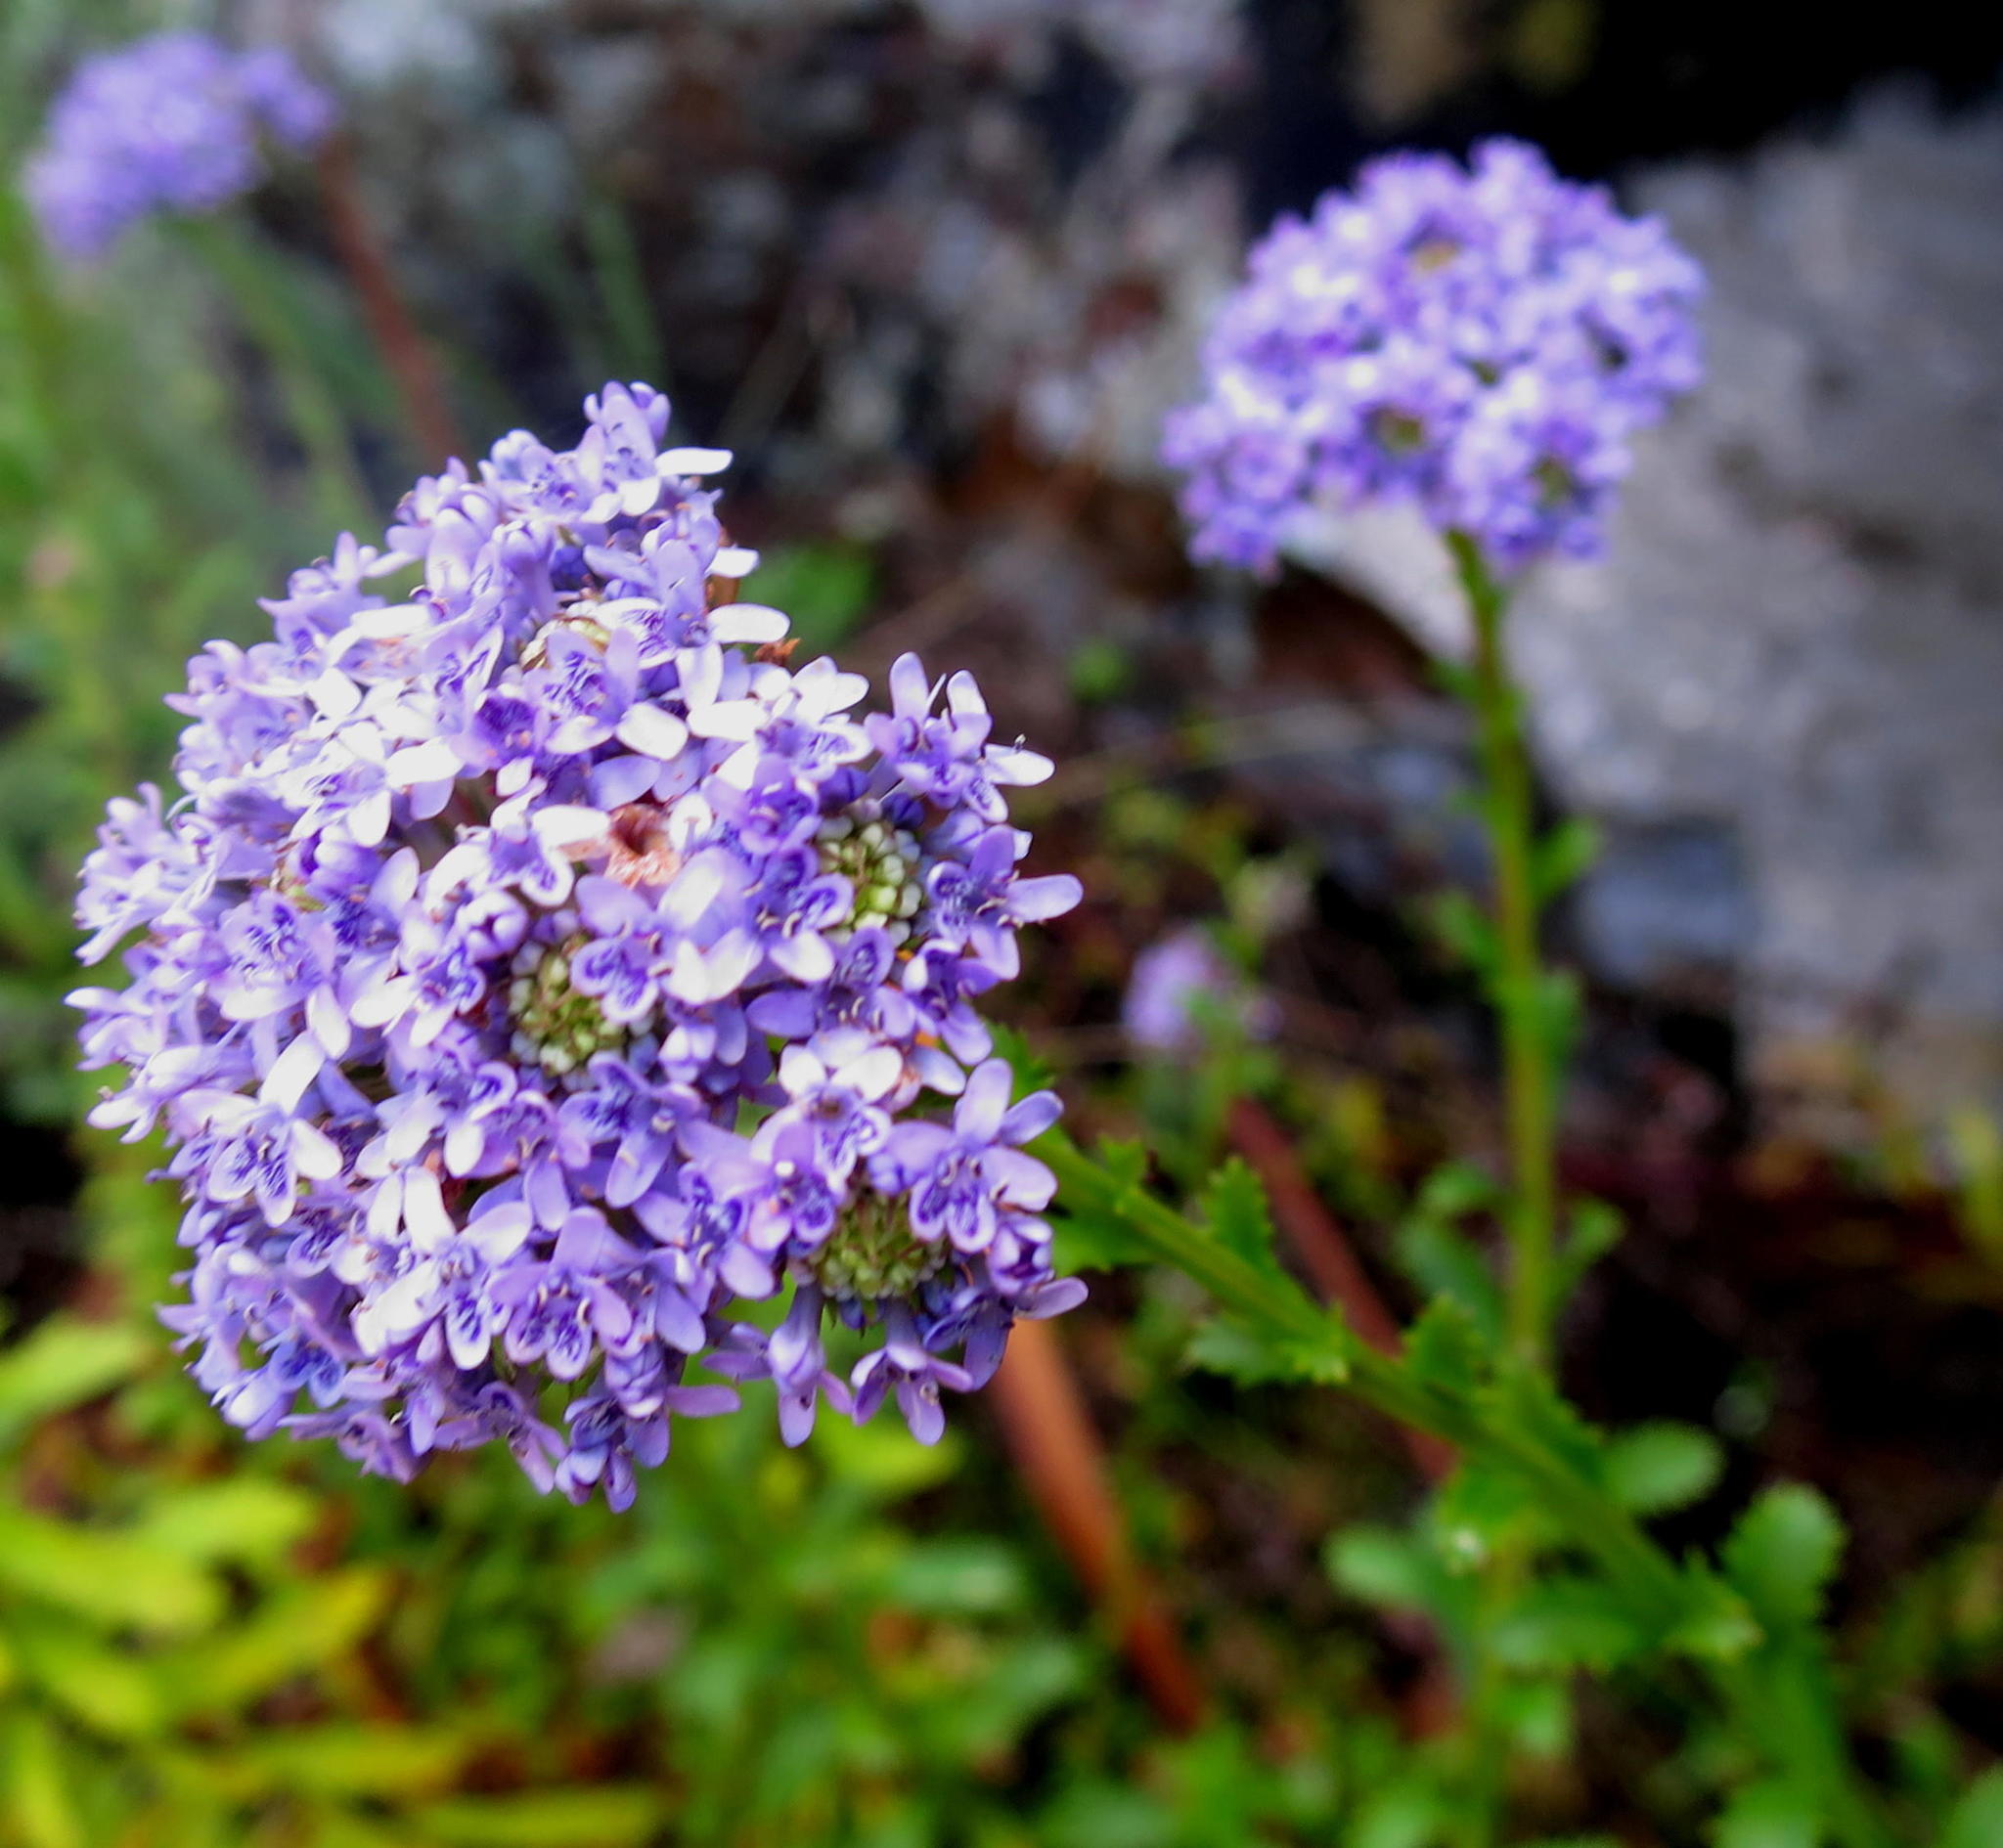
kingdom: Plantae
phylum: Tracheophyta
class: Magnoliopsida
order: Lamiales
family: Scrophulariaceae
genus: Pseudoselago
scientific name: Pseudoselago langebergensis
